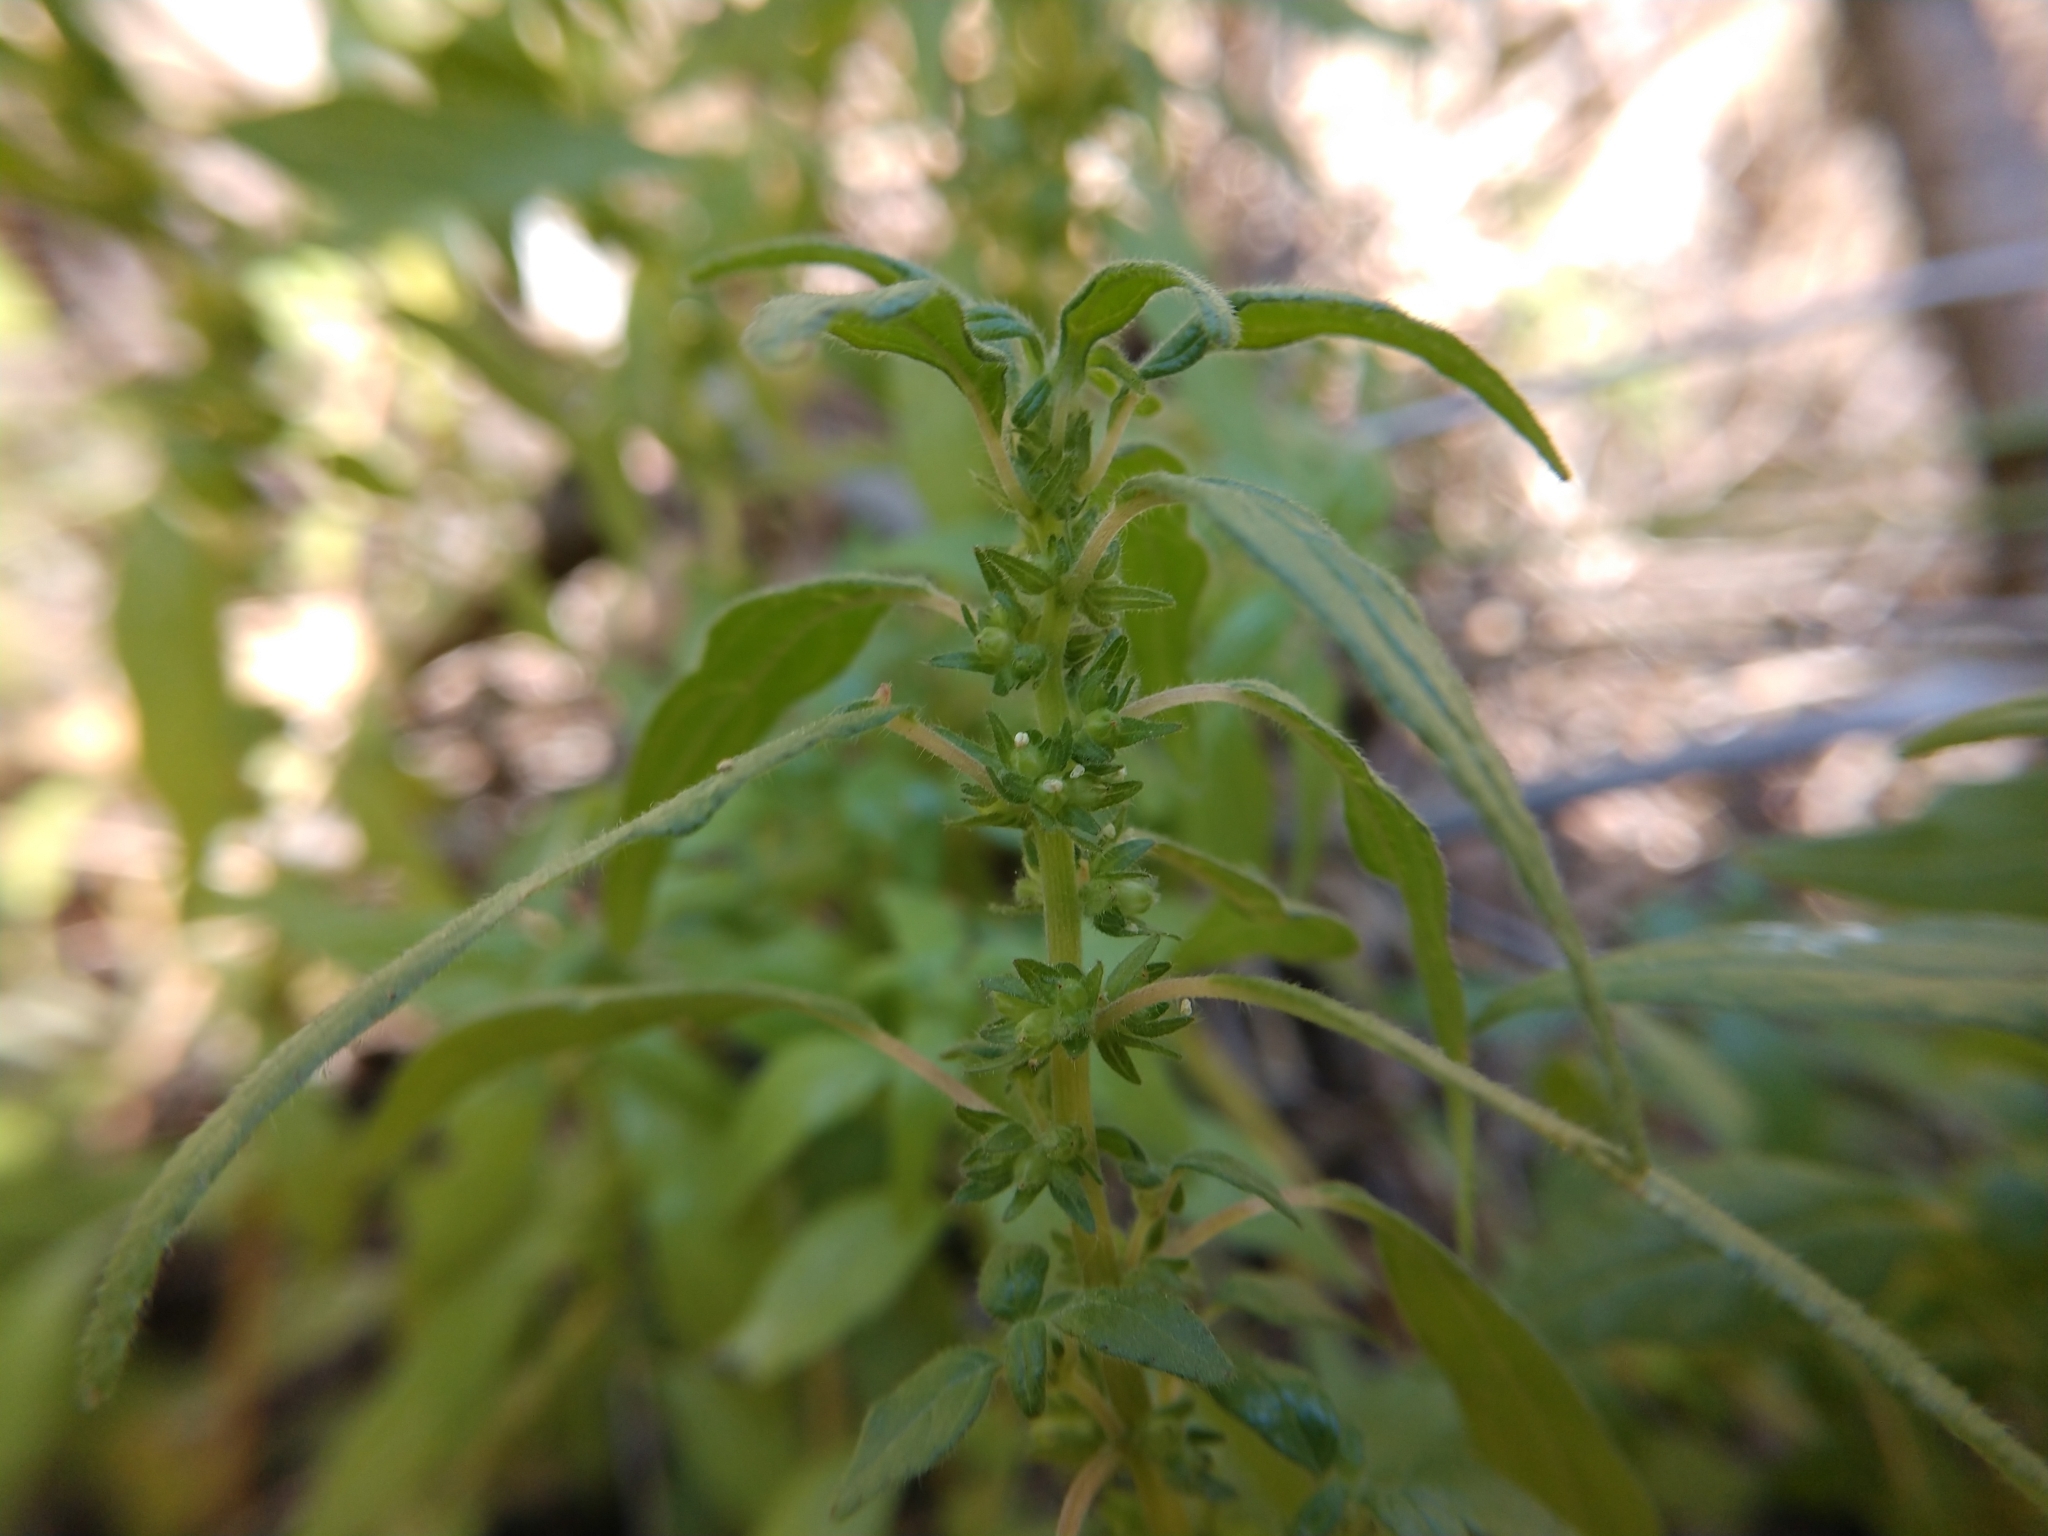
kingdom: Plantae
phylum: Tracheophyta
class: Magnoliopsida
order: Rosales
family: Urticaceae
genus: Parietaria
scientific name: Parietaria pensylvanica
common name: Pennsylvania pellitory
